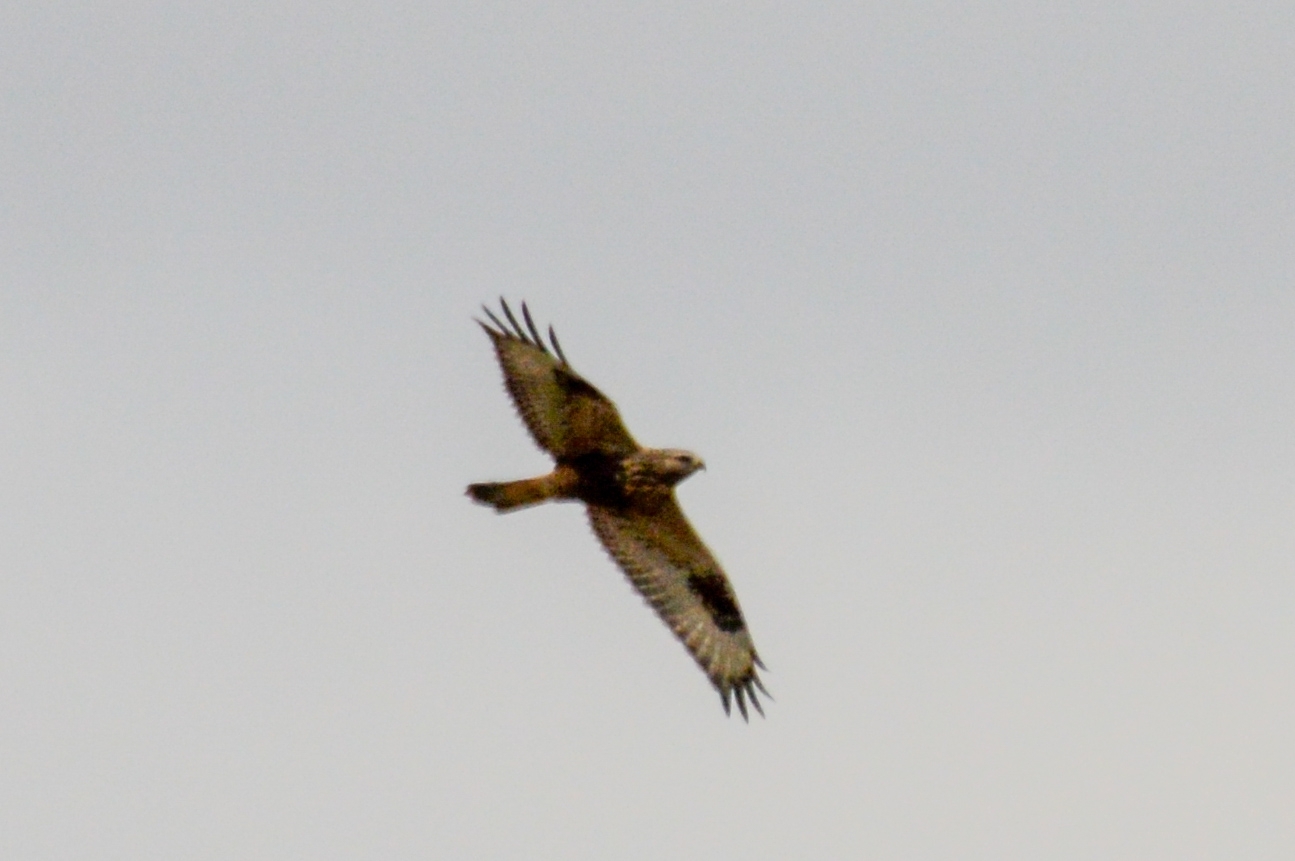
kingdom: Animalia
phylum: Chordata
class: Aves
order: Accipitriformes
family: Accipitridae
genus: Buteo
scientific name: Buteo lagopus
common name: Rough-legged buzzard
